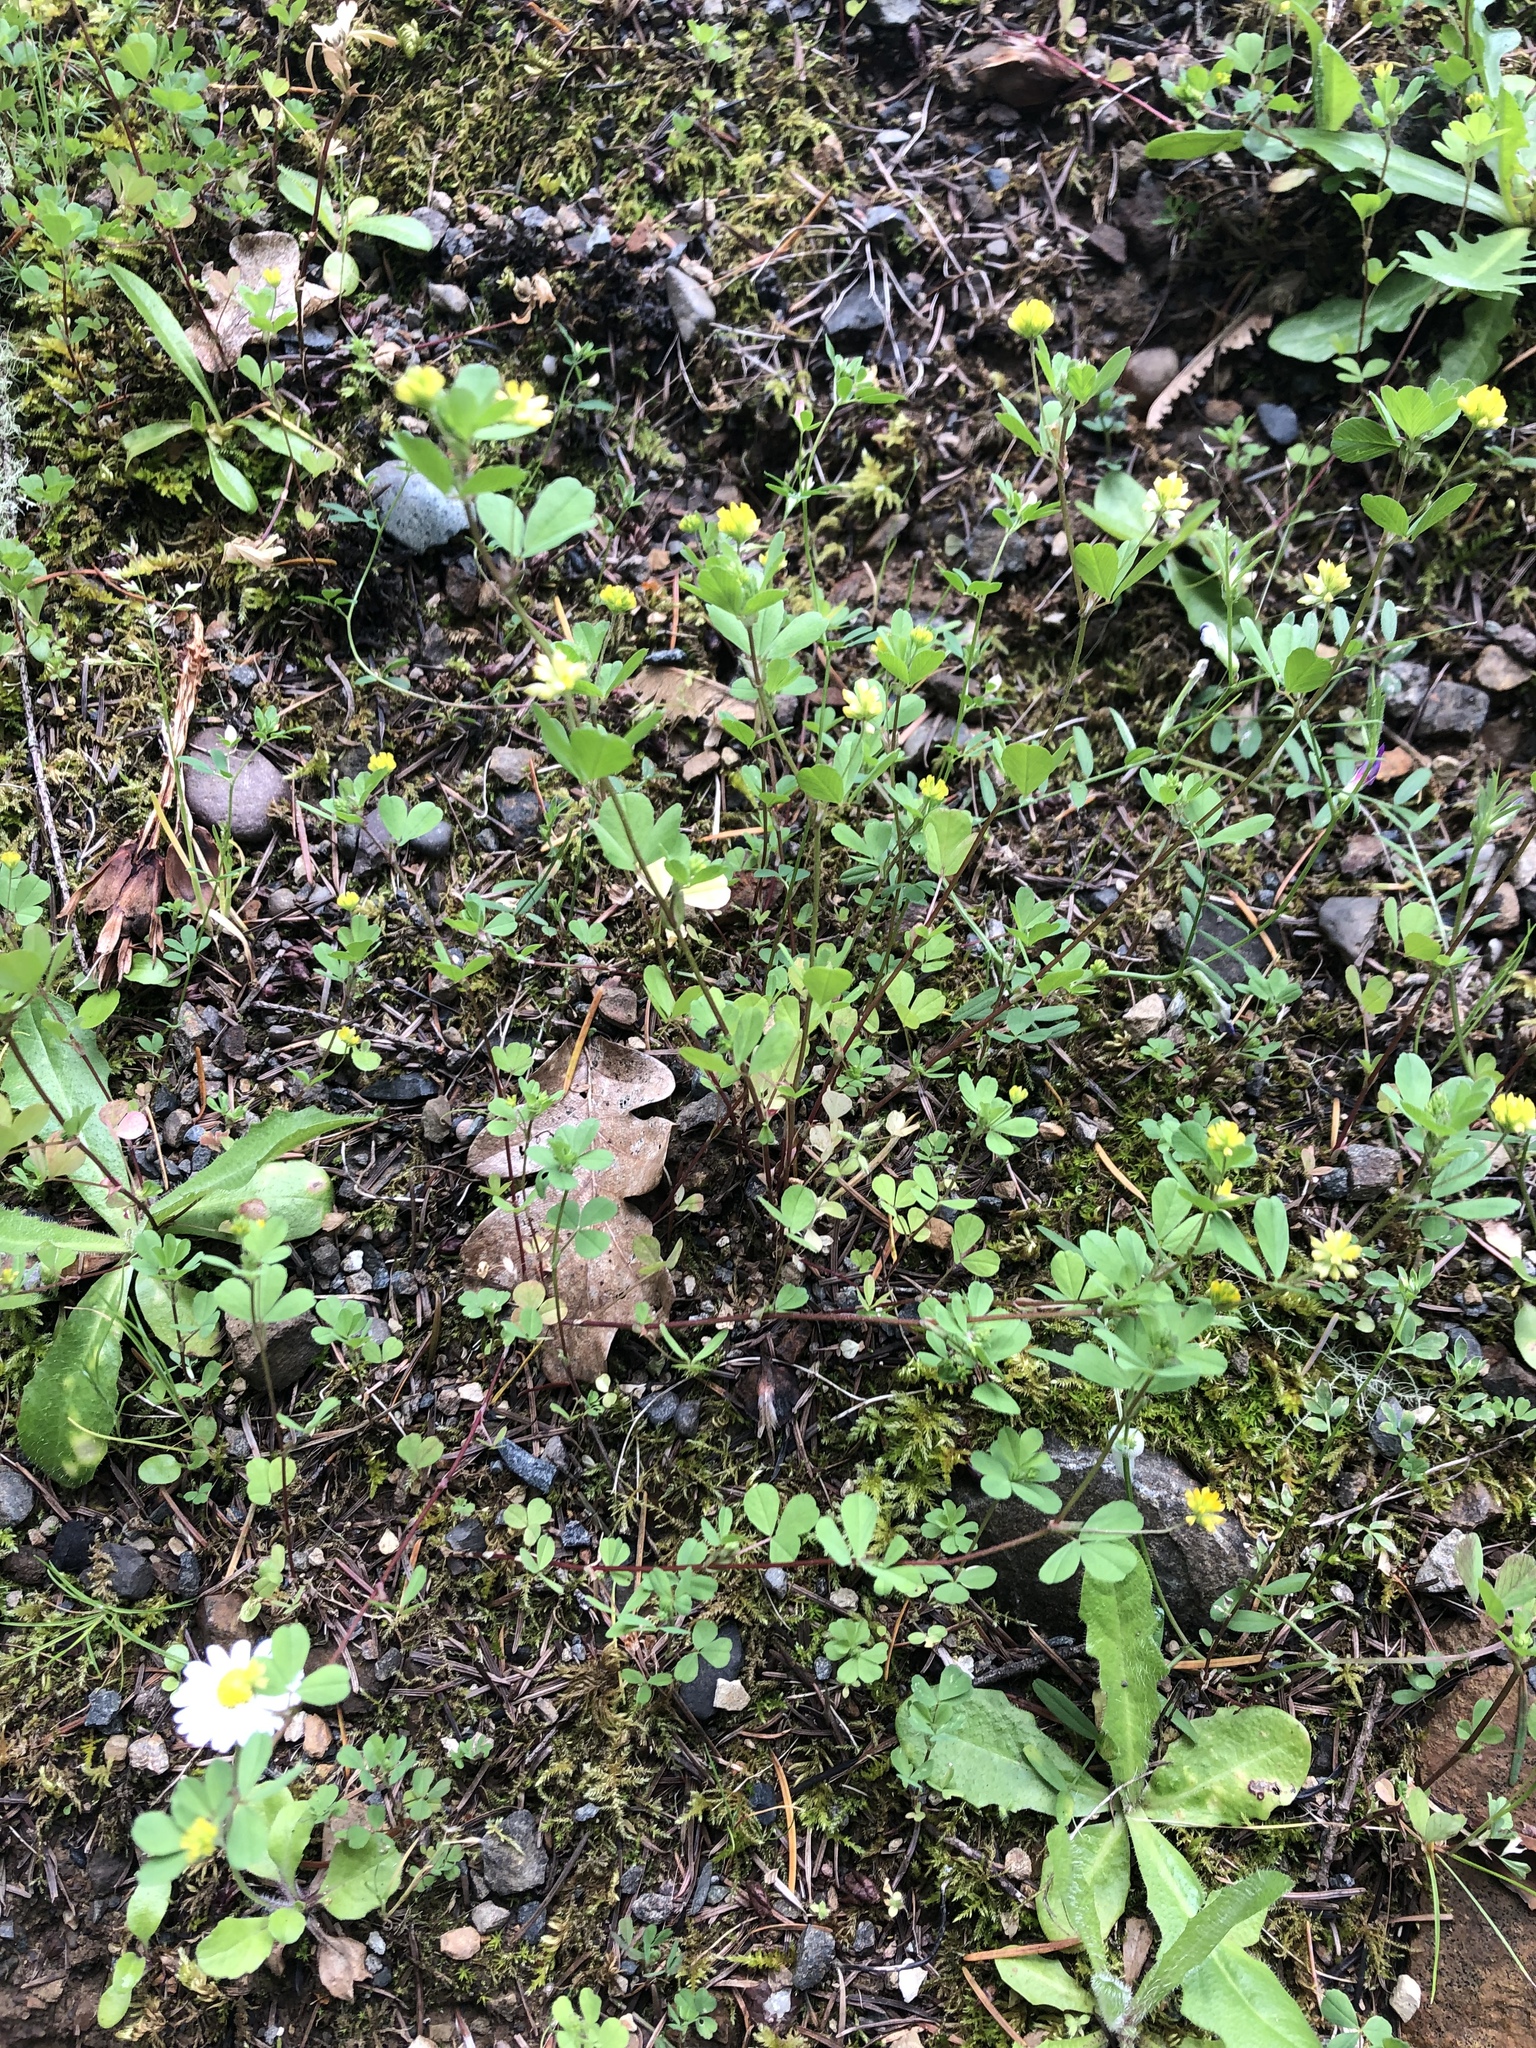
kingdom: Plantae
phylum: Tracheophyta
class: Magnoliopsida
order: Fabales
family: Fabaceae
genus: Trifolium
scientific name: Trifolium dubium
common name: Suckling clover
